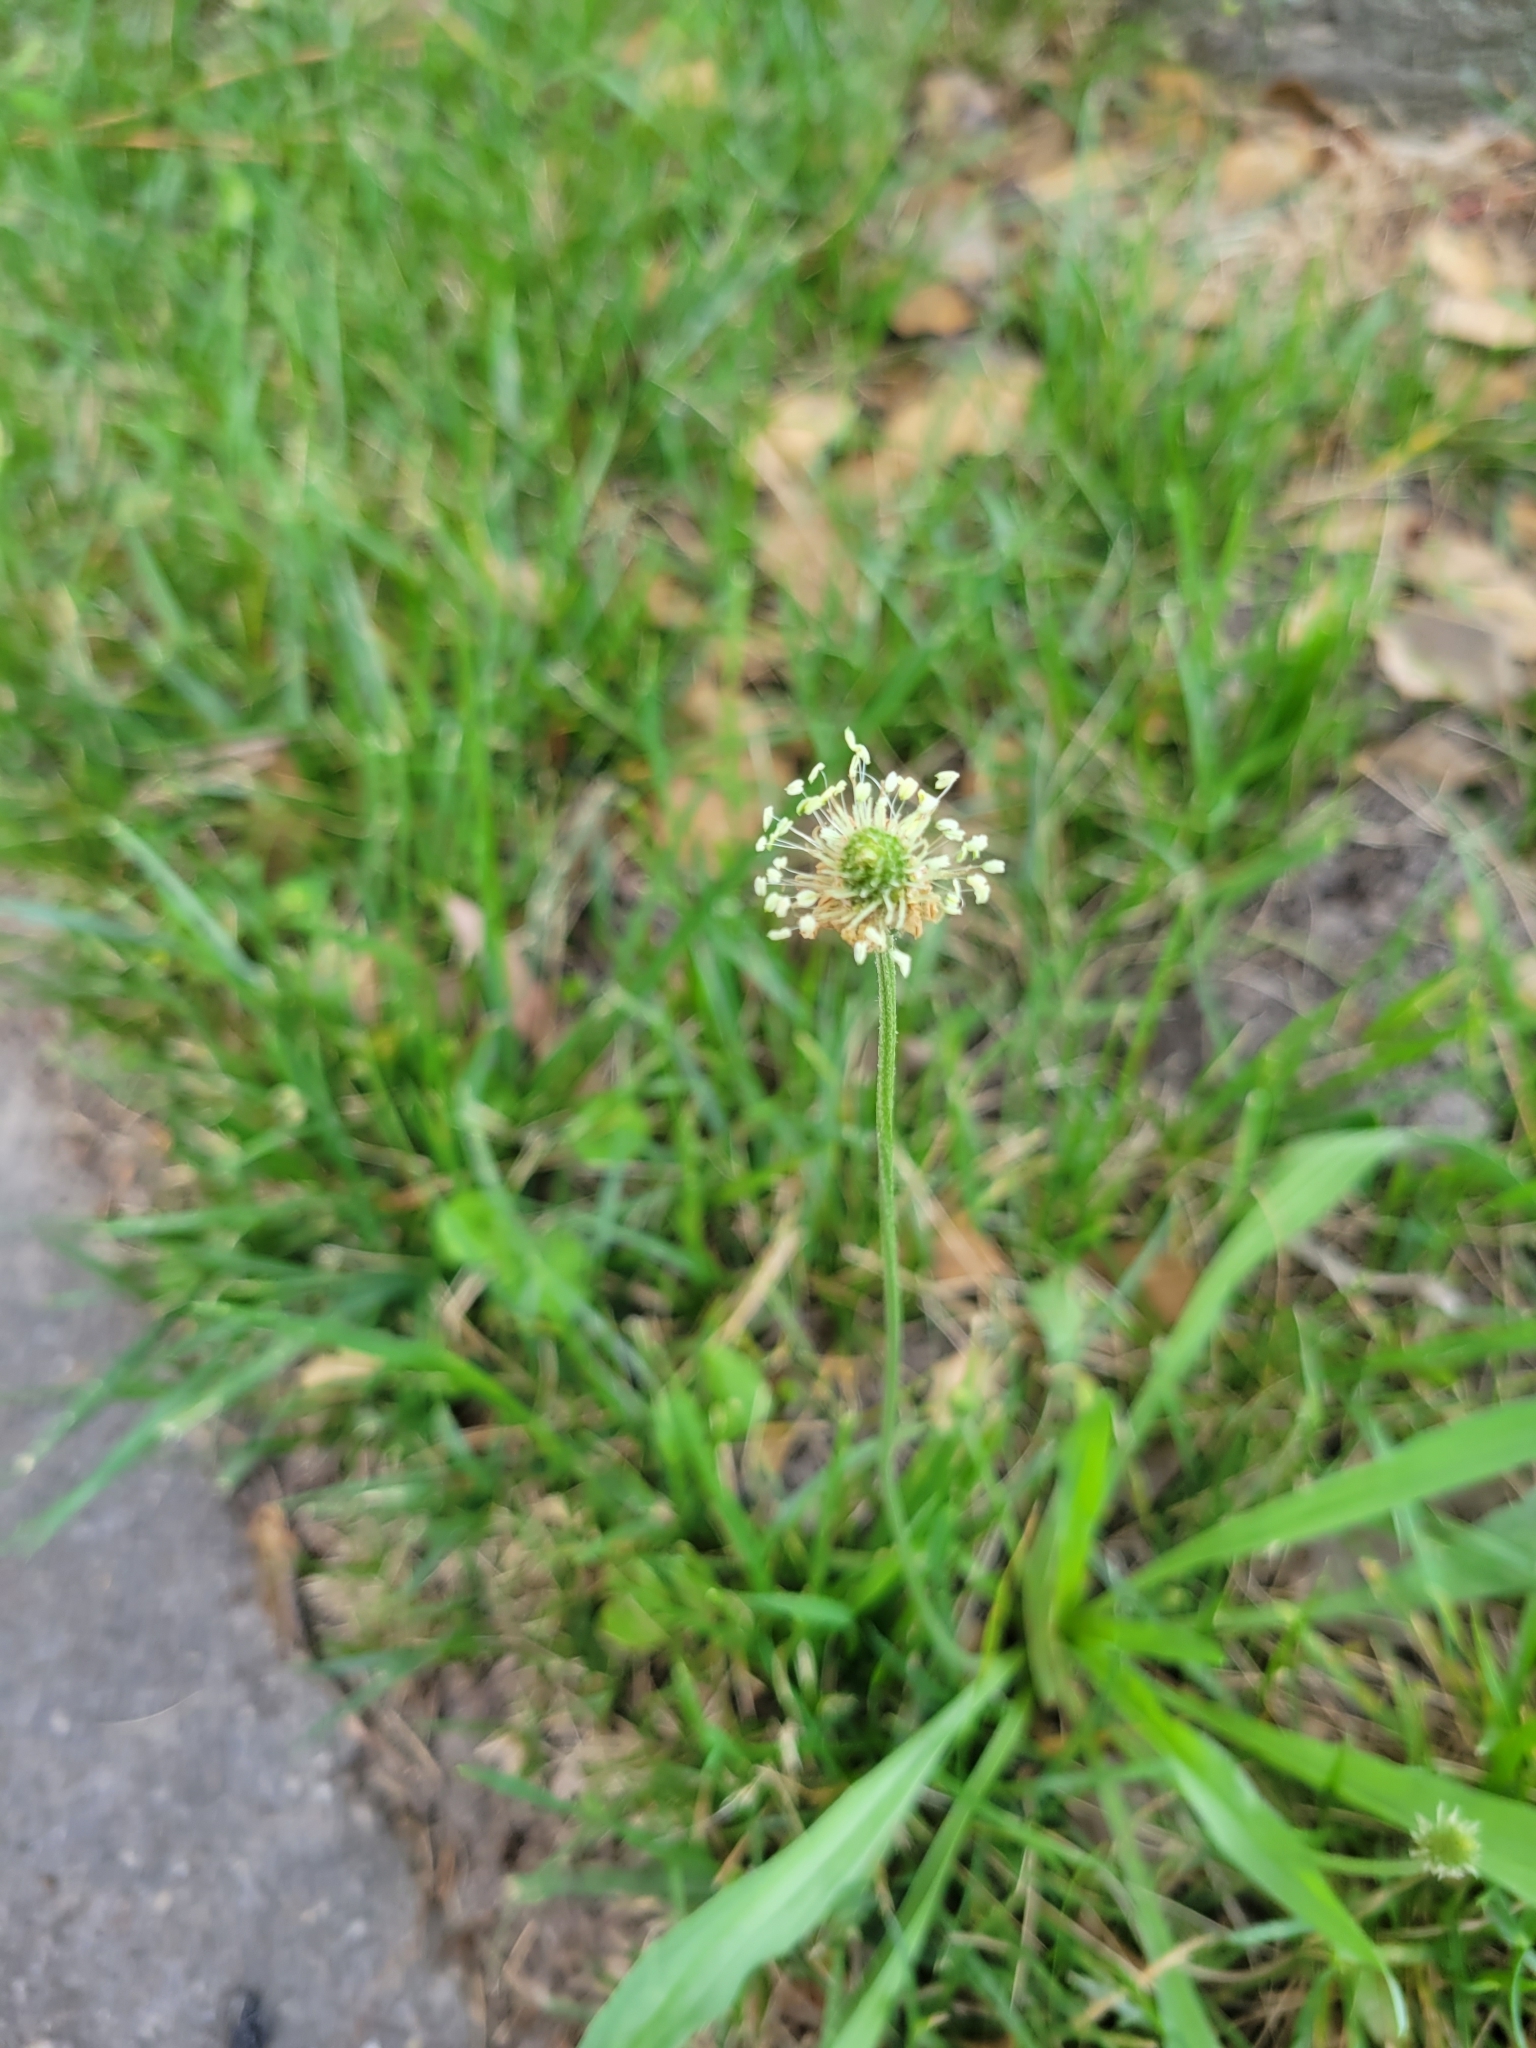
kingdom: Plantae
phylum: Tracheophyta
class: Magnoliopsida
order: Lamiales
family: Plantaginaceae
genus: Plantago
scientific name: Plantago lanceolata
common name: Ribwort plantain
